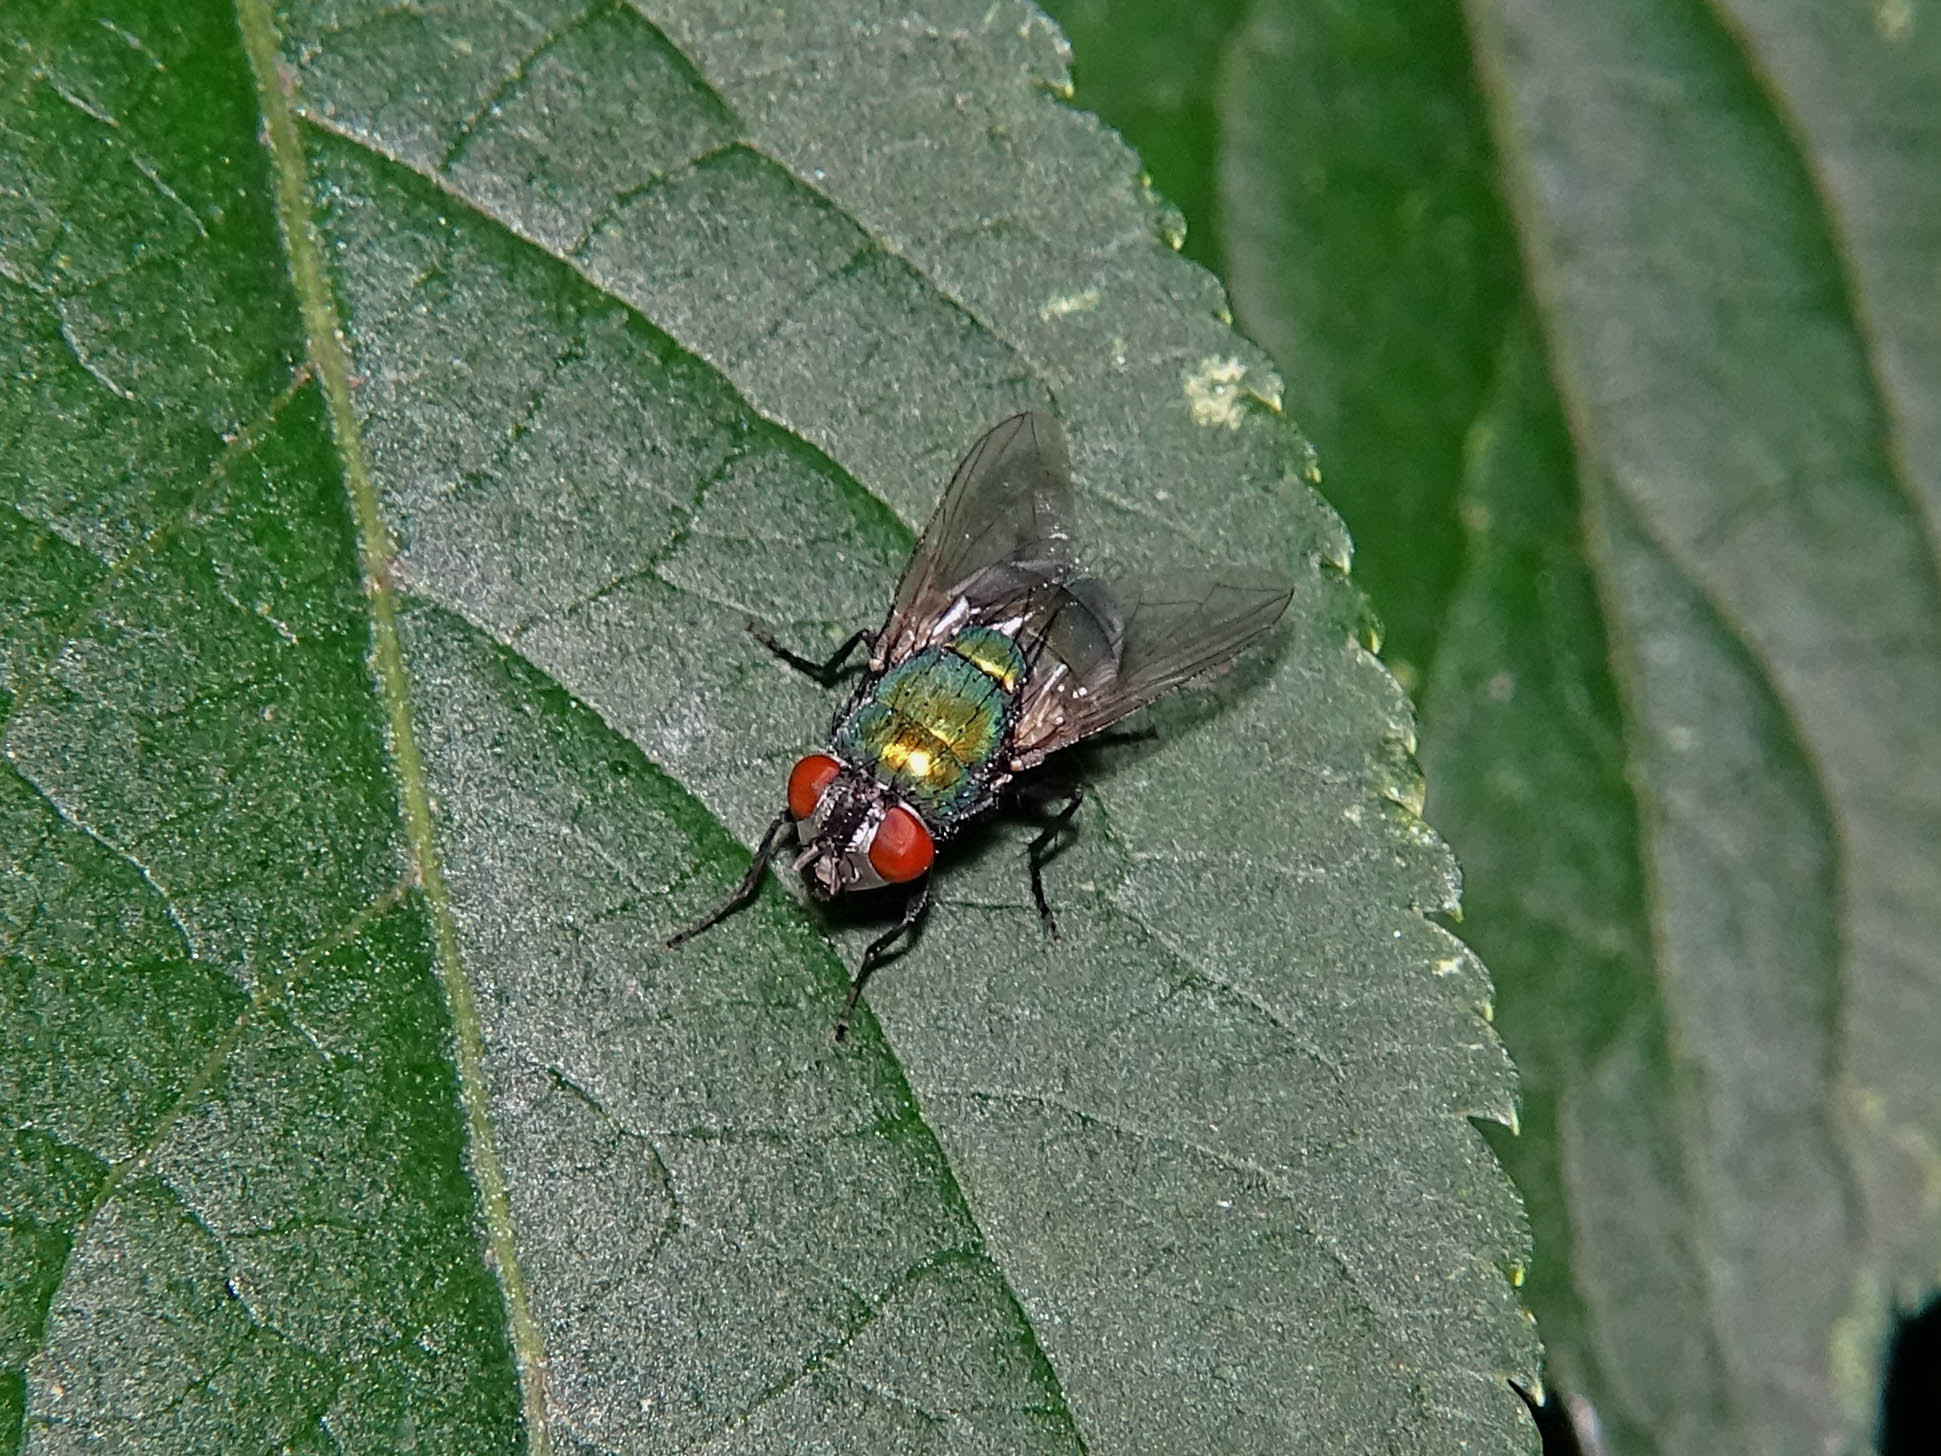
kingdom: Animalia
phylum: Arthropoda
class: Insecta
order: Diptera
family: Calliphoridae
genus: Lucilia
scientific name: Lucilia sericata
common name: Blow fly
